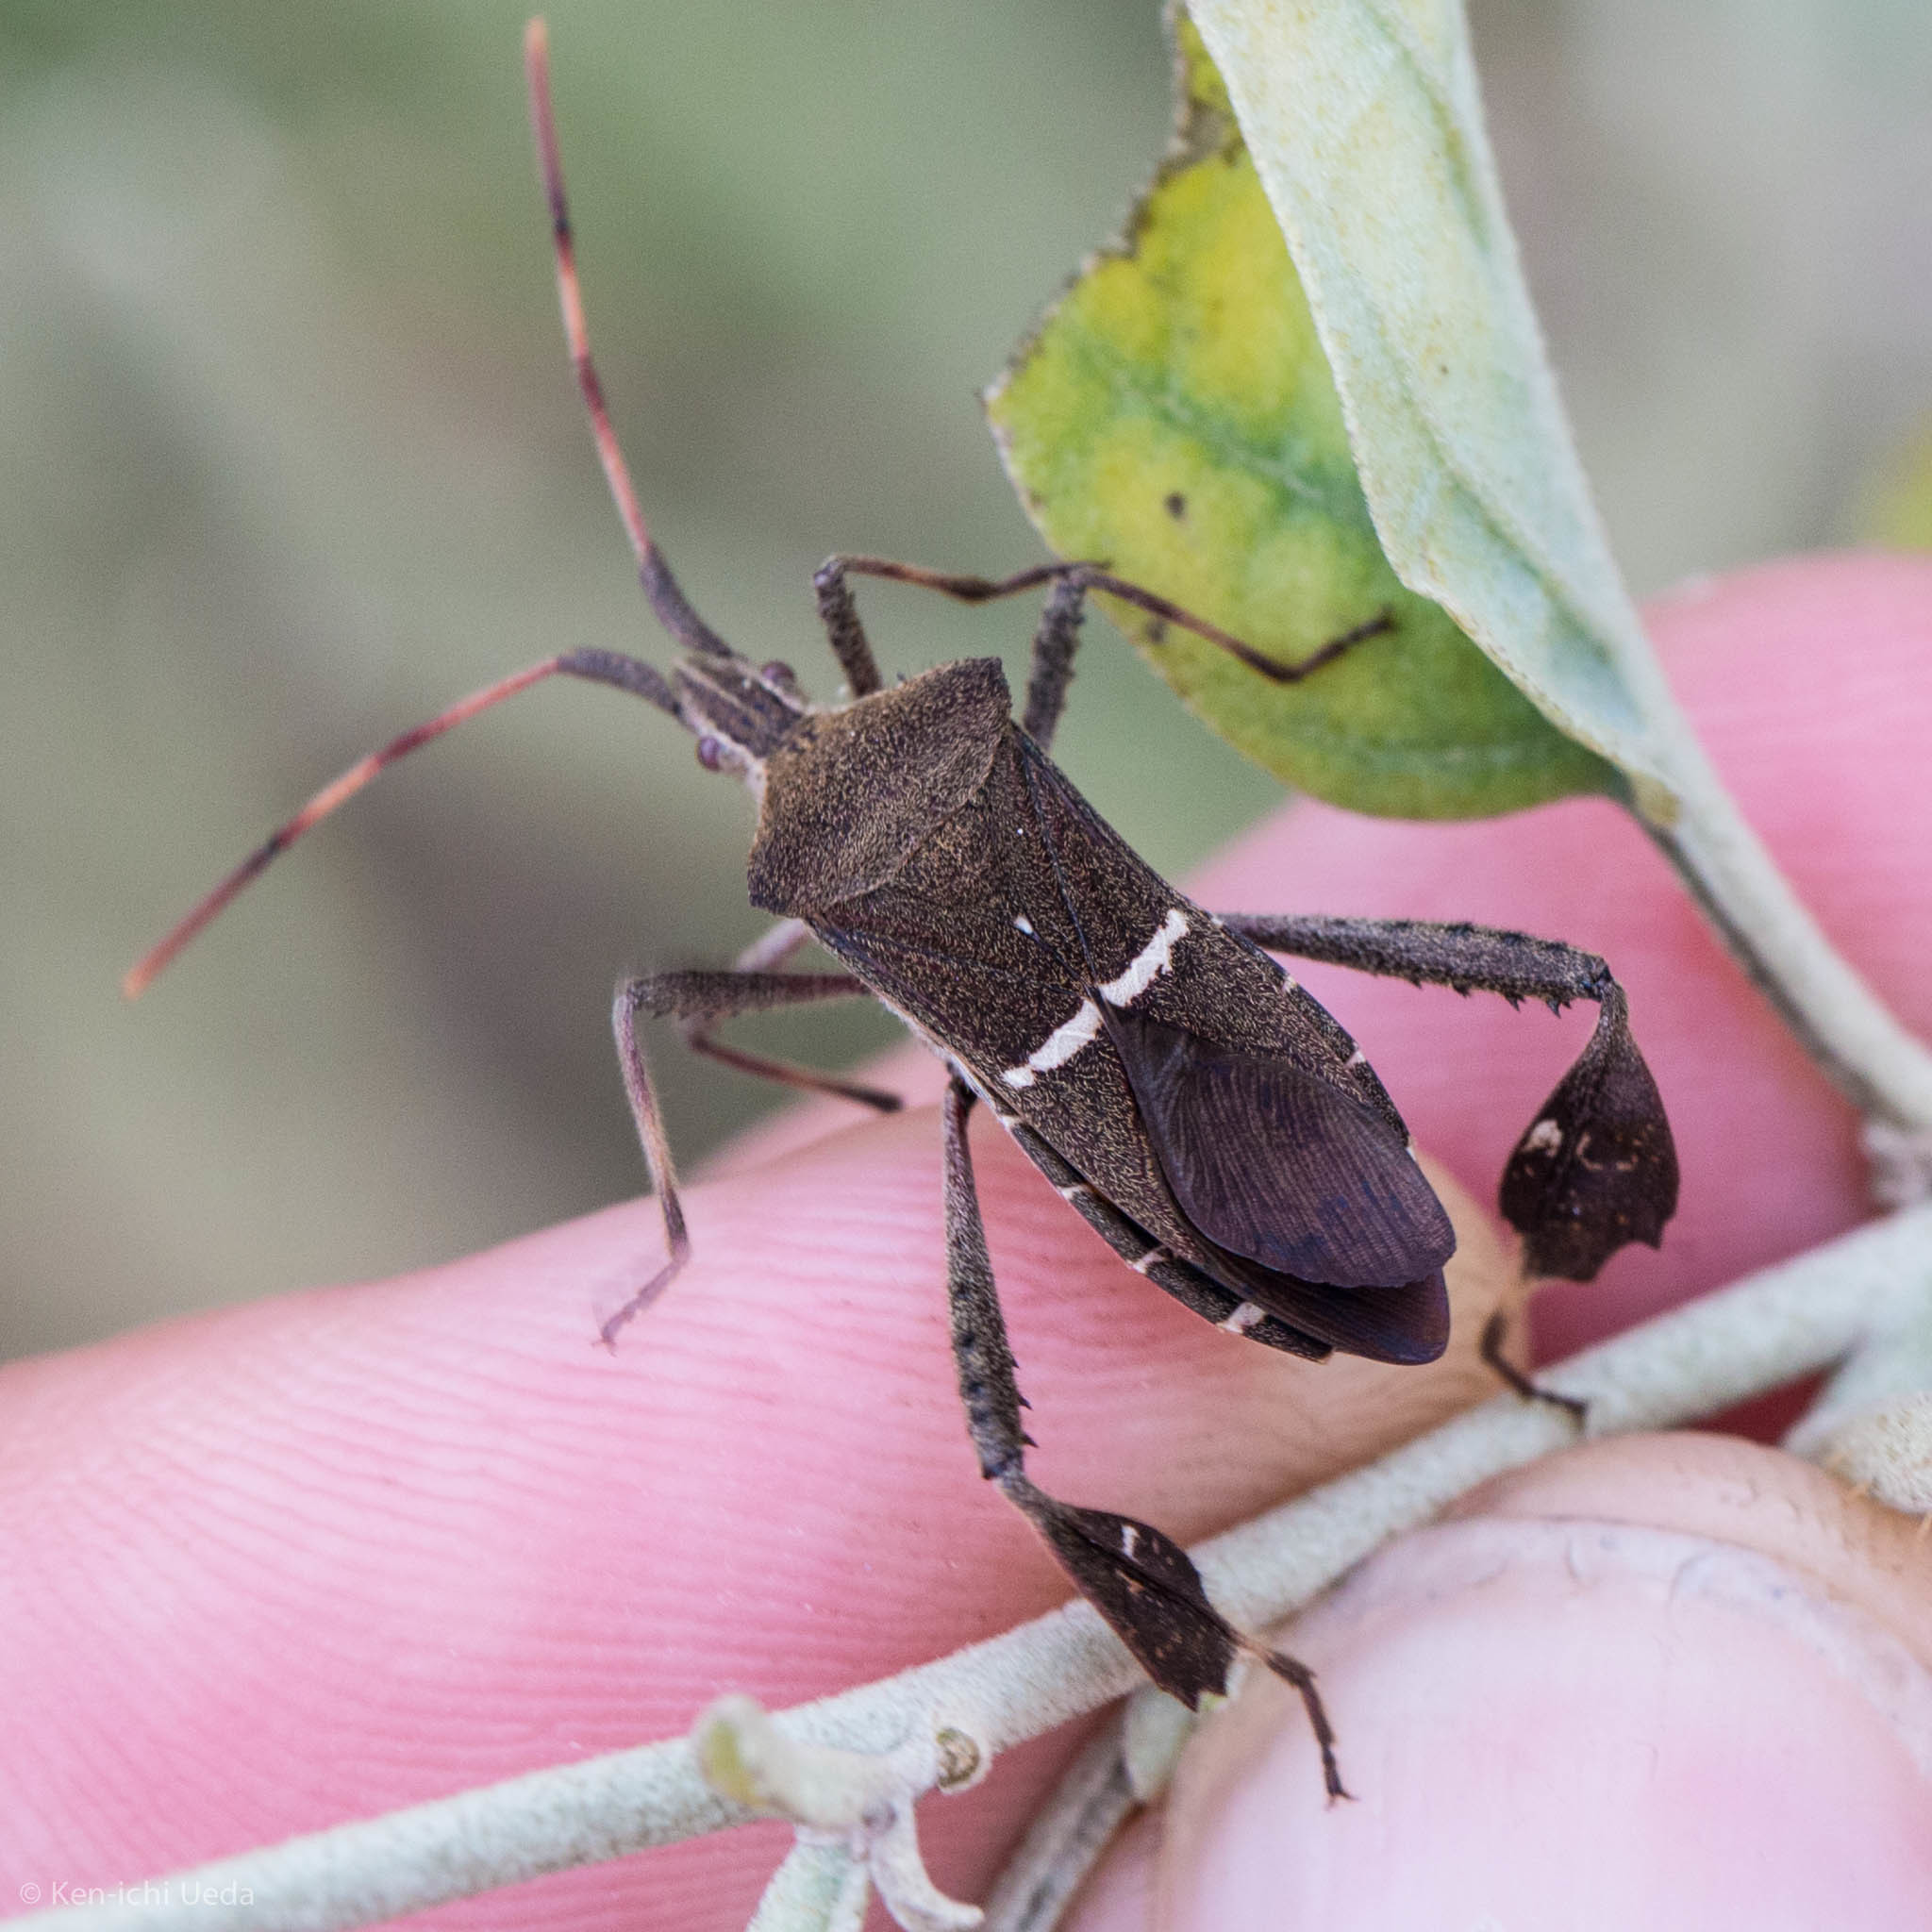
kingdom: Animalia
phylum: Arthropoda
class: Insecta
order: Hemiptera
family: Coreidae
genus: Leptoglossus
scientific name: Leptoglossus phyllopus
